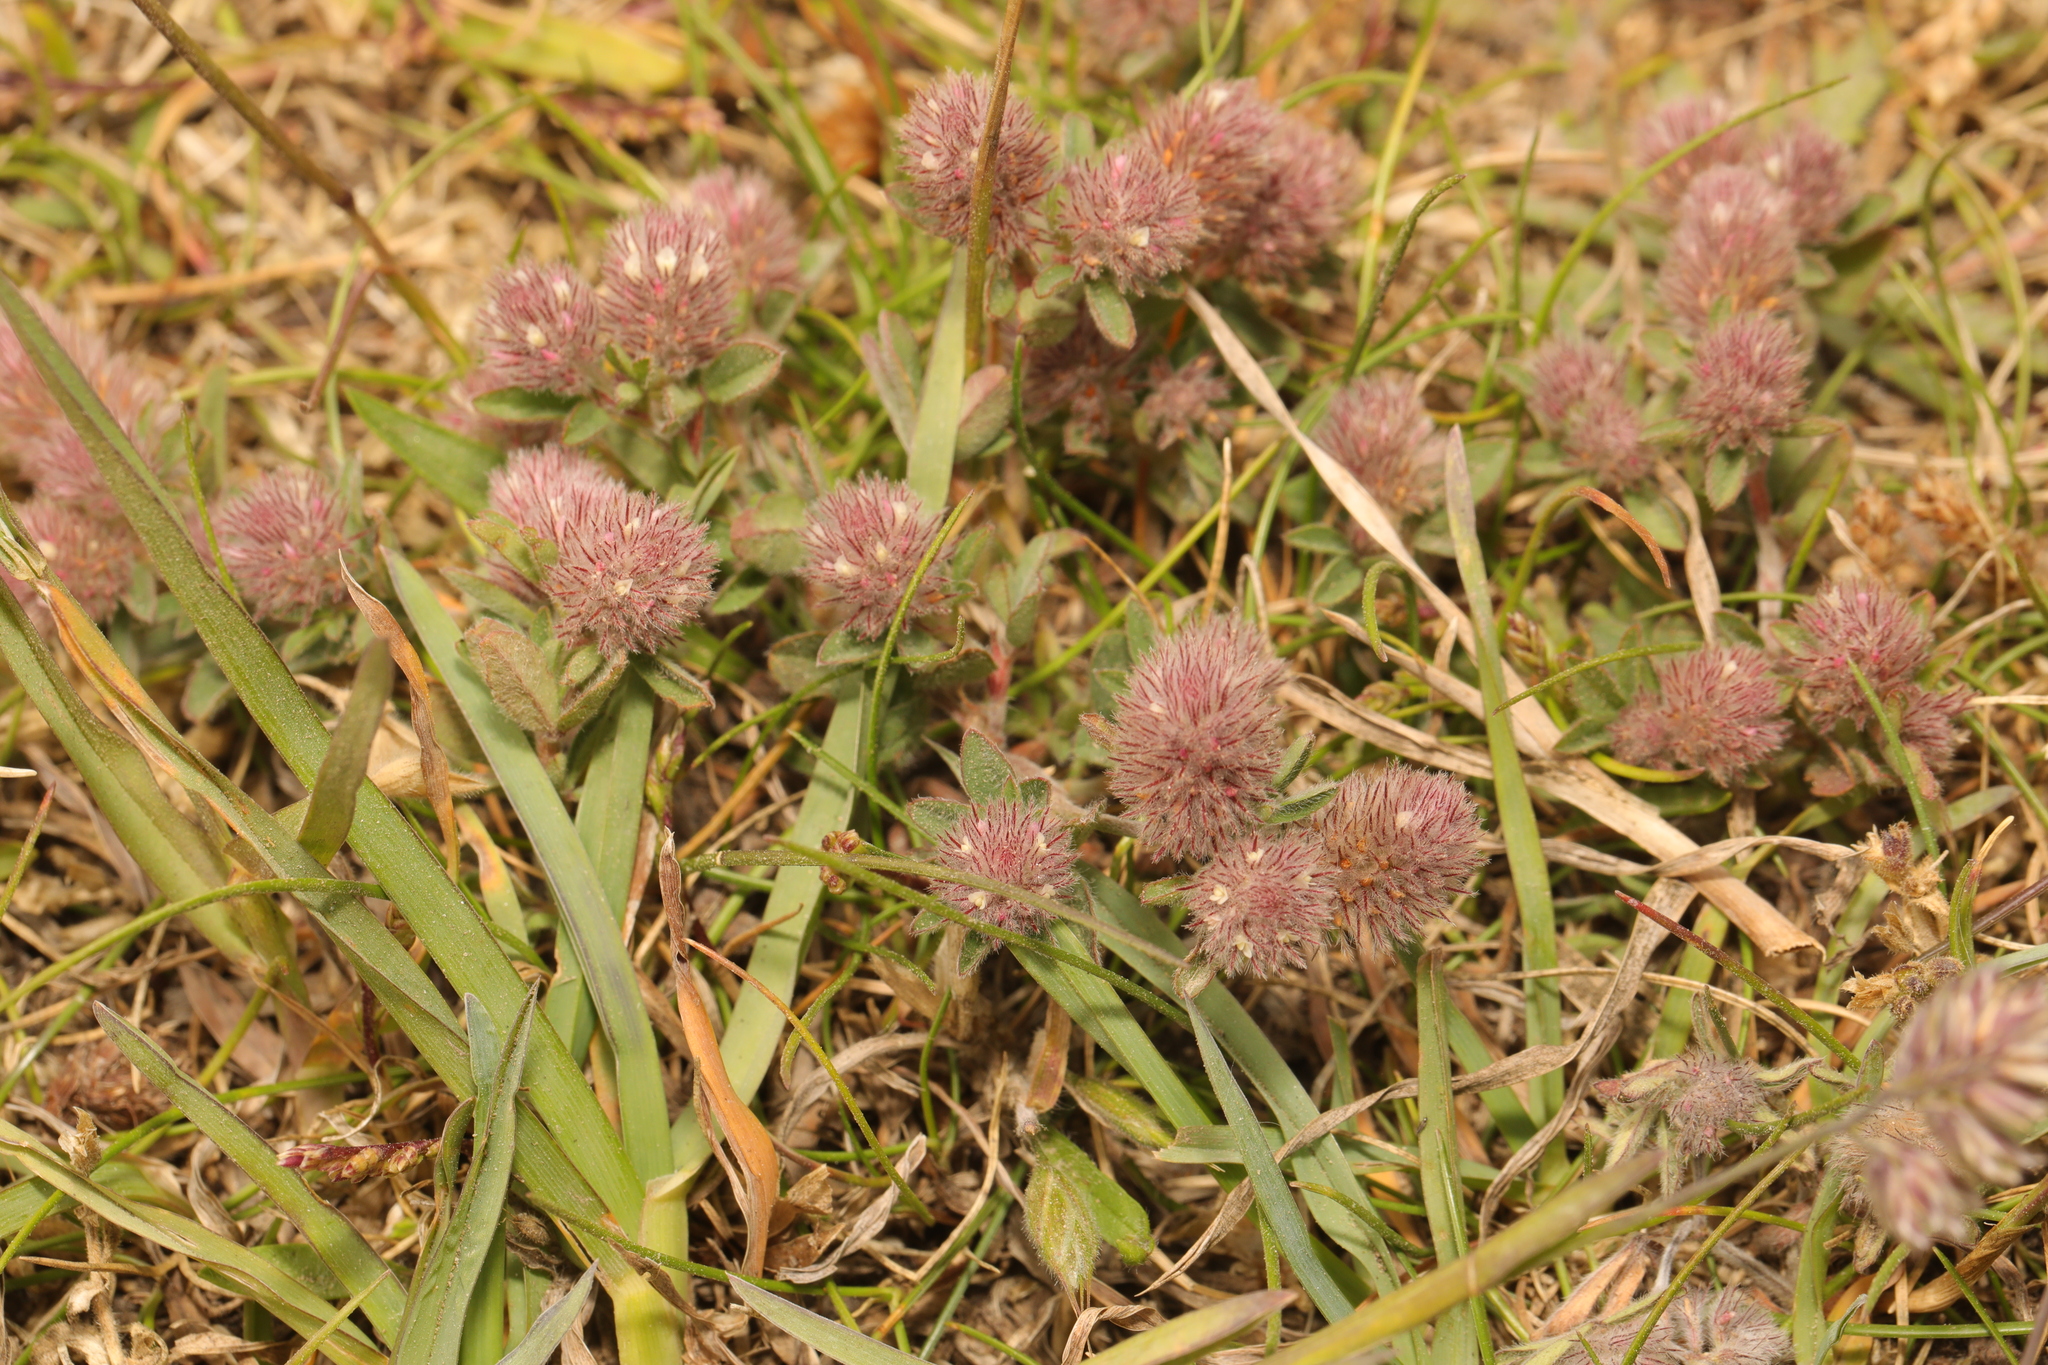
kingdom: Plantae
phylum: Tracheophyta
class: Magnoliopsida
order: Fabales
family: Fabaceae
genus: Trifolium
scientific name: Trifolium arvense
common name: Hare's-foot clover
